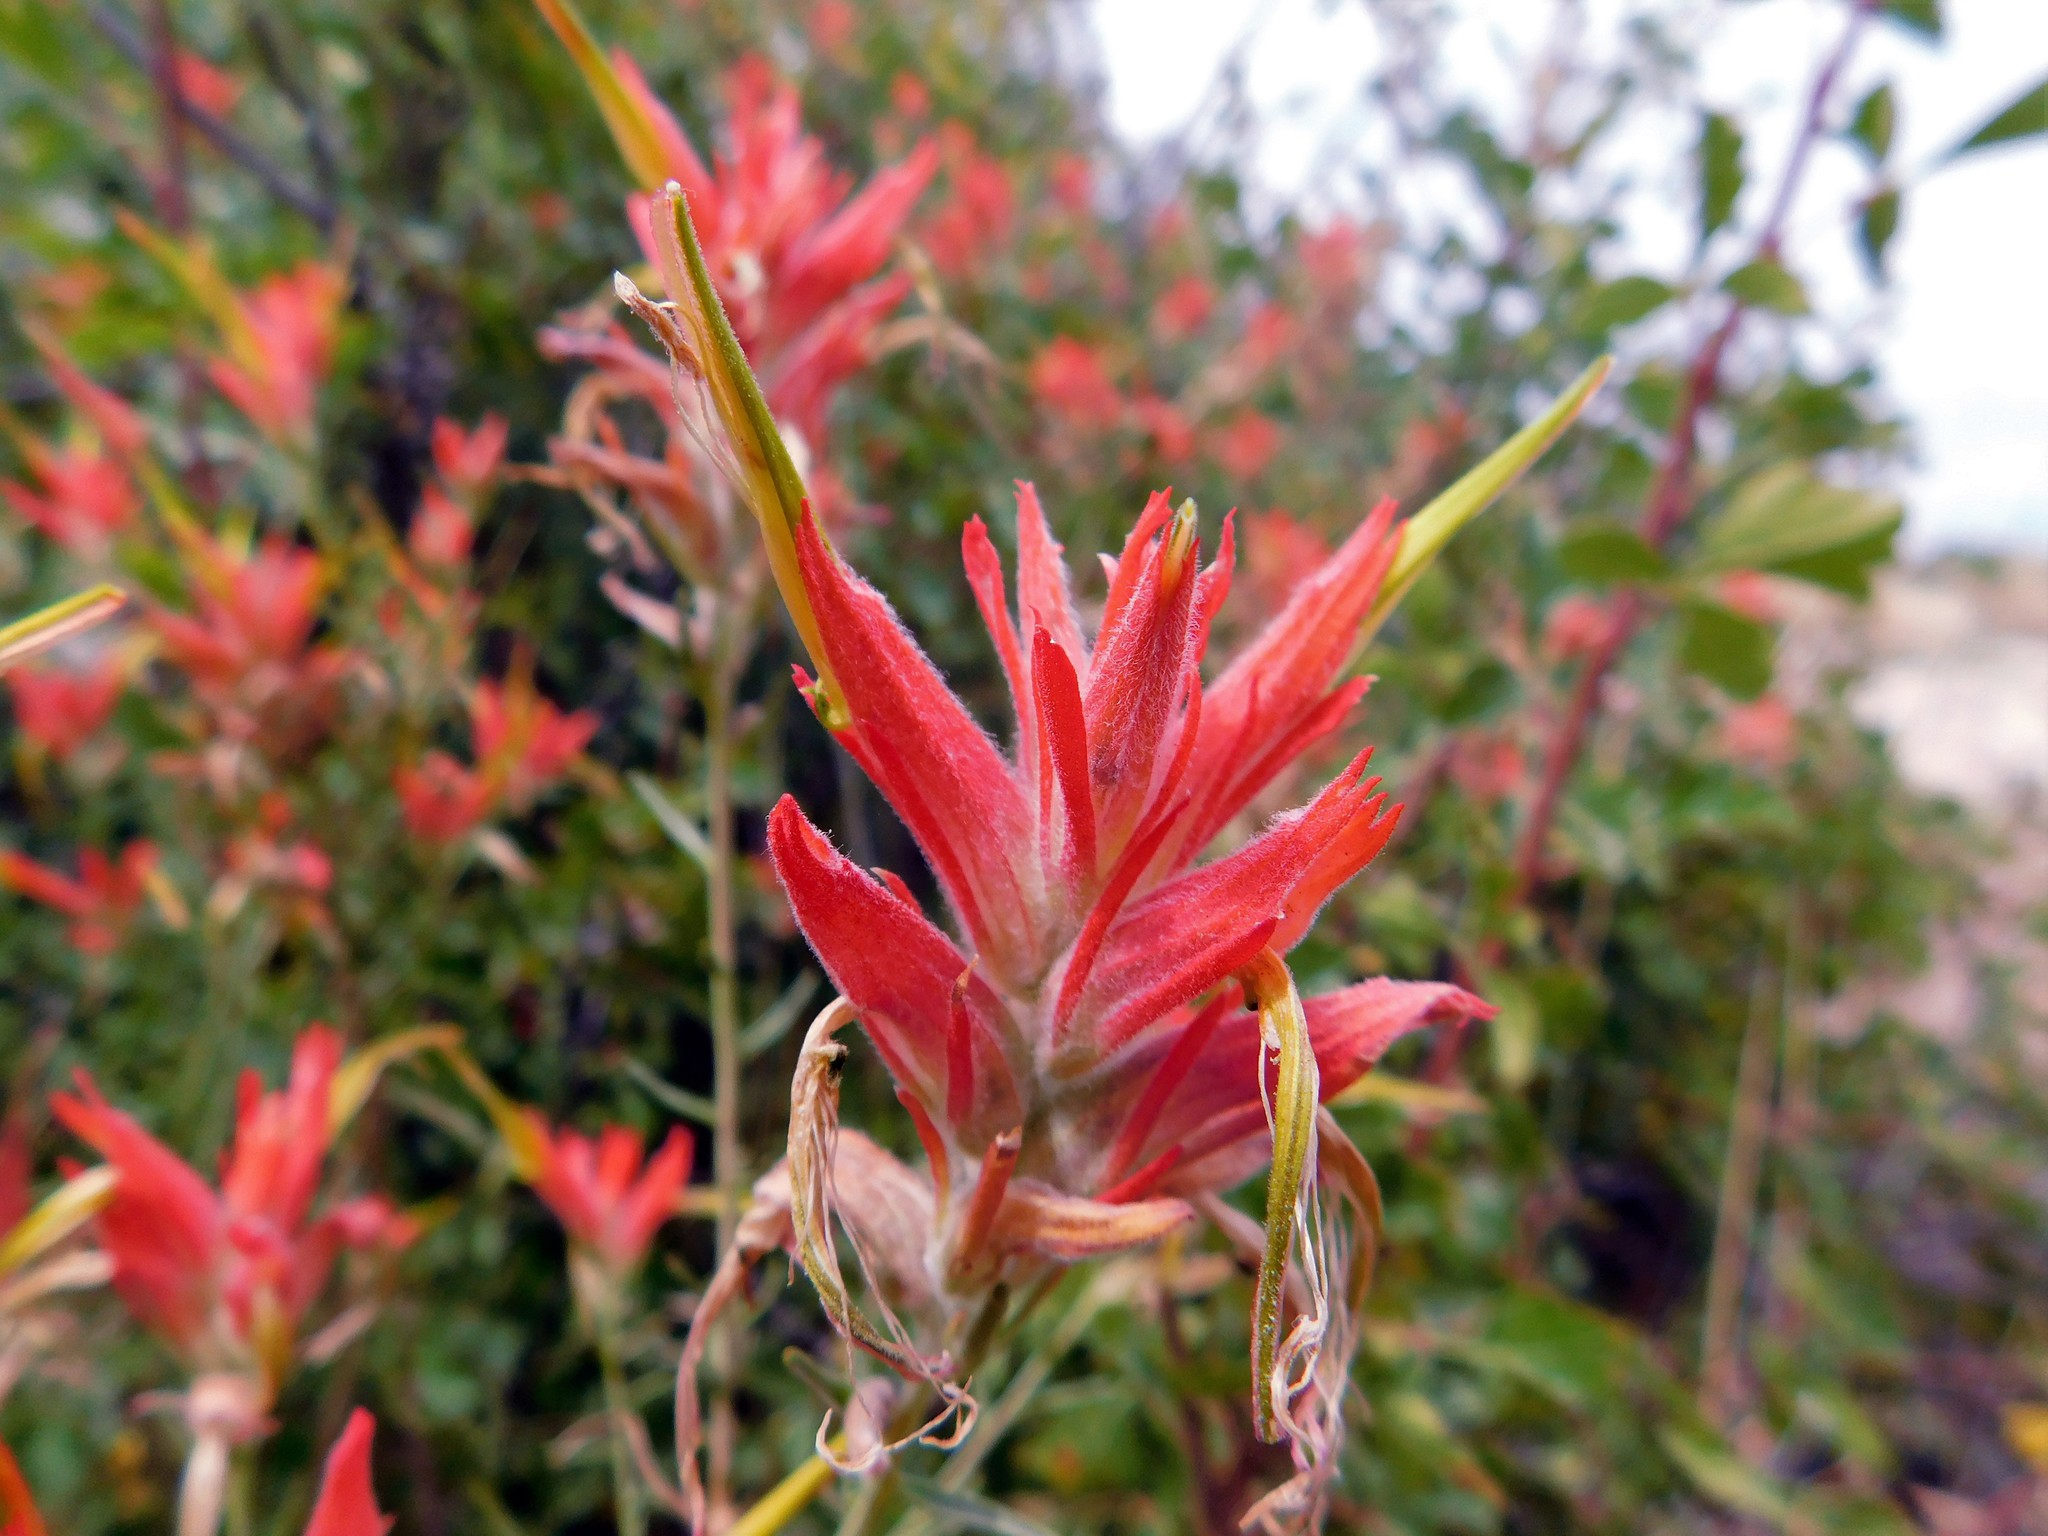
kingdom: Plantae
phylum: Tracheophyta
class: Magnoliopsida
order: Lamiales
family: Orobanchaceae
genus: Castilleja
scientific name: Castilleja linariifolia
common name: Wyoming paintbrush
